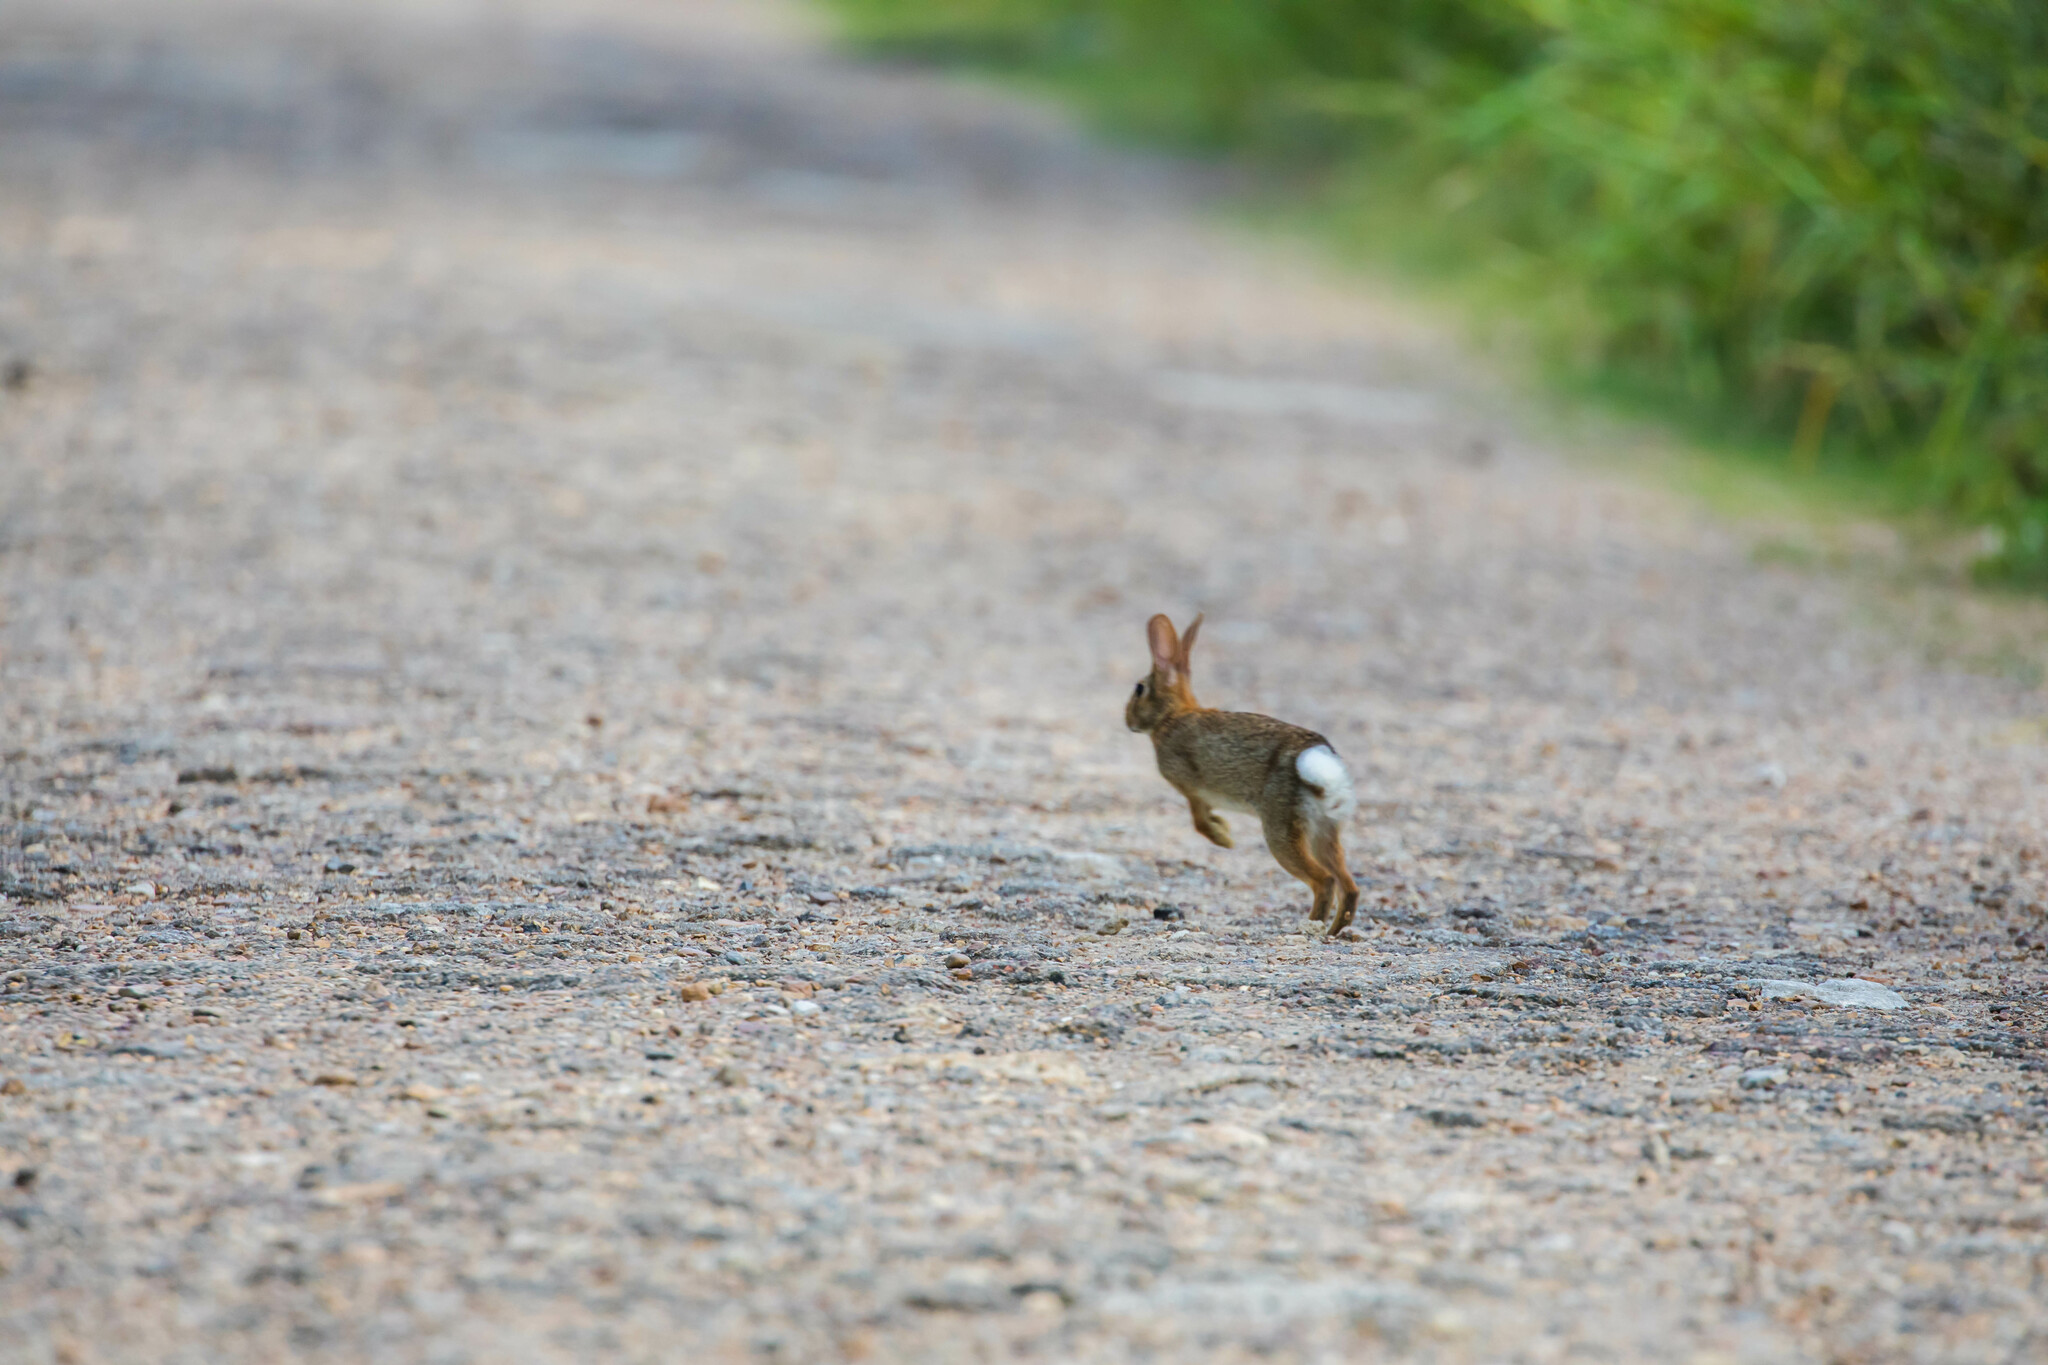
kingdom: Animalia
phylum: Chordata
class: Mammalia
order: Lagomorpha
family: Leporidae
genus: Sylvilagus
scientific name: Sylvilagus floridanus
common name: Eastern cottontail
